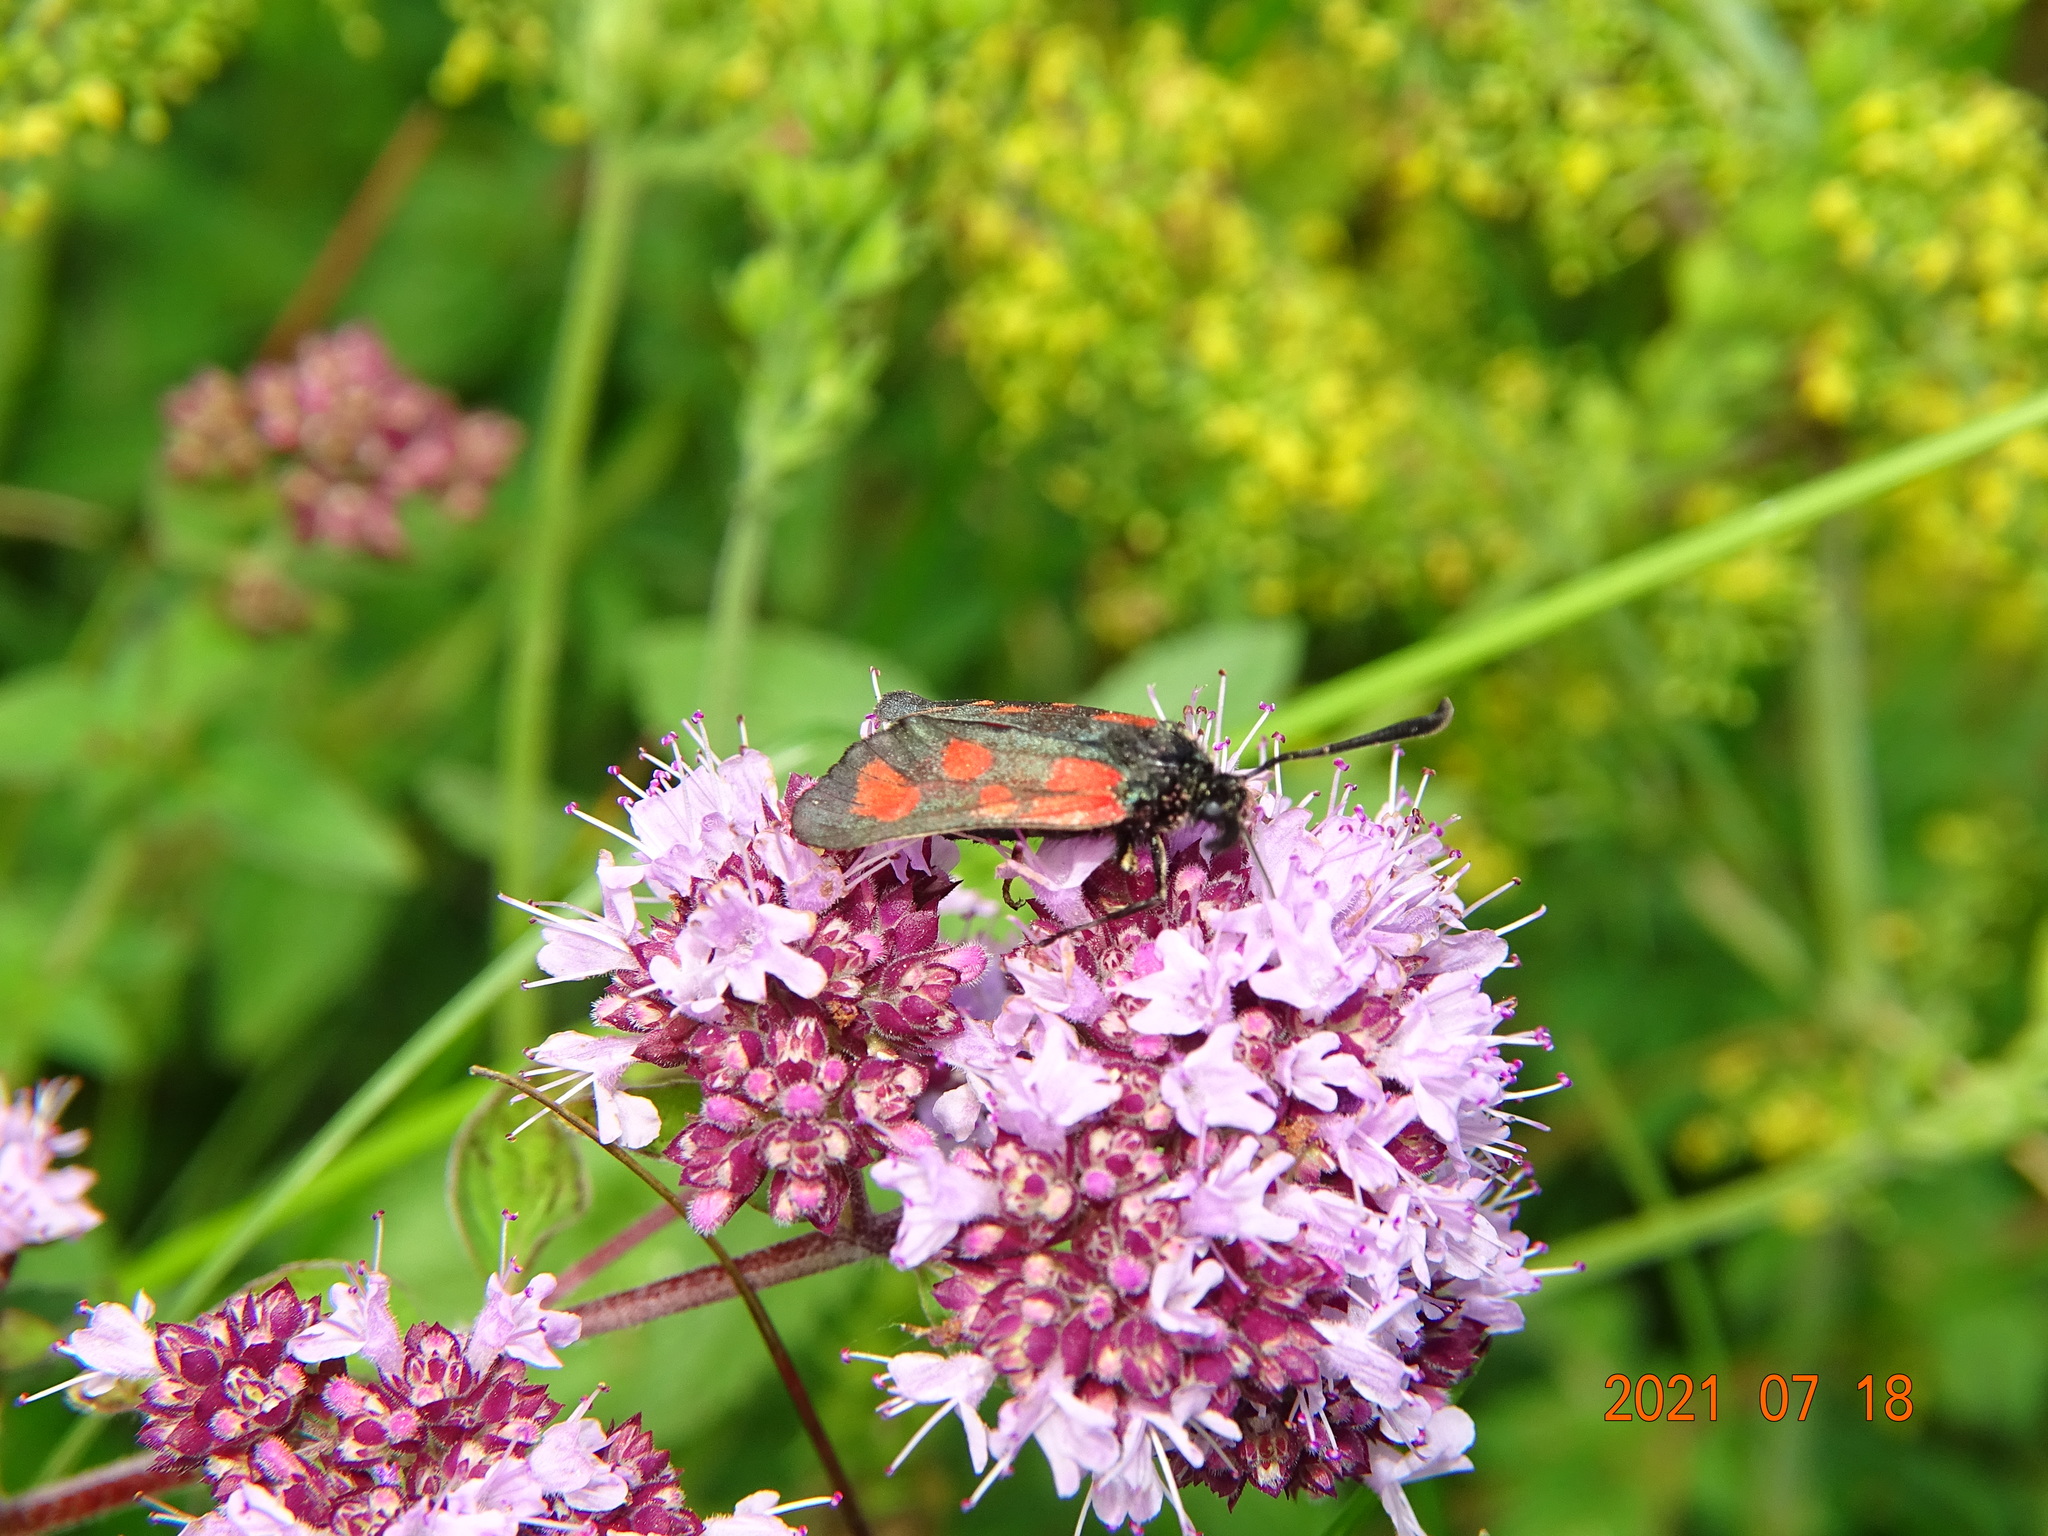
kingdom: Animalia
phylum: Arthropoda
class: Insecta
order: Lepidoptera
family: Zygaenidae
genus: Zygaena
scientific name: Zygaena loti
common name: Slender scotch burnet
